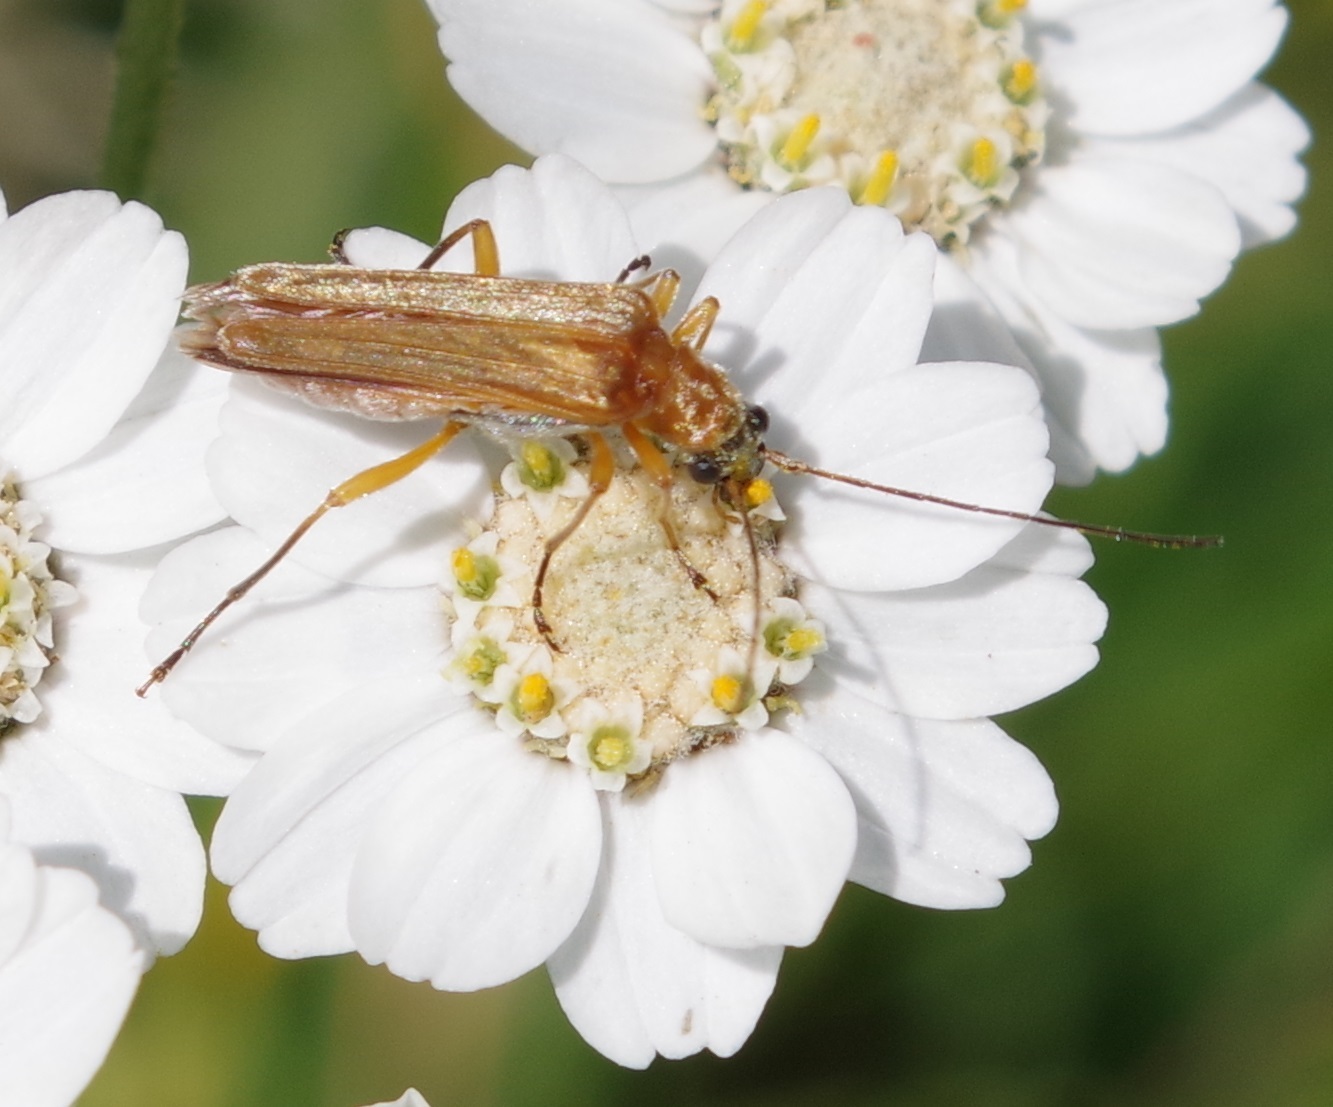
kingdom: Animalia
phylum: Arthropoda
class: Insecta
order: Coleoptera
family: Oedemeridae
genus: Oedemera
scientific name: Oedemera podagrariae
